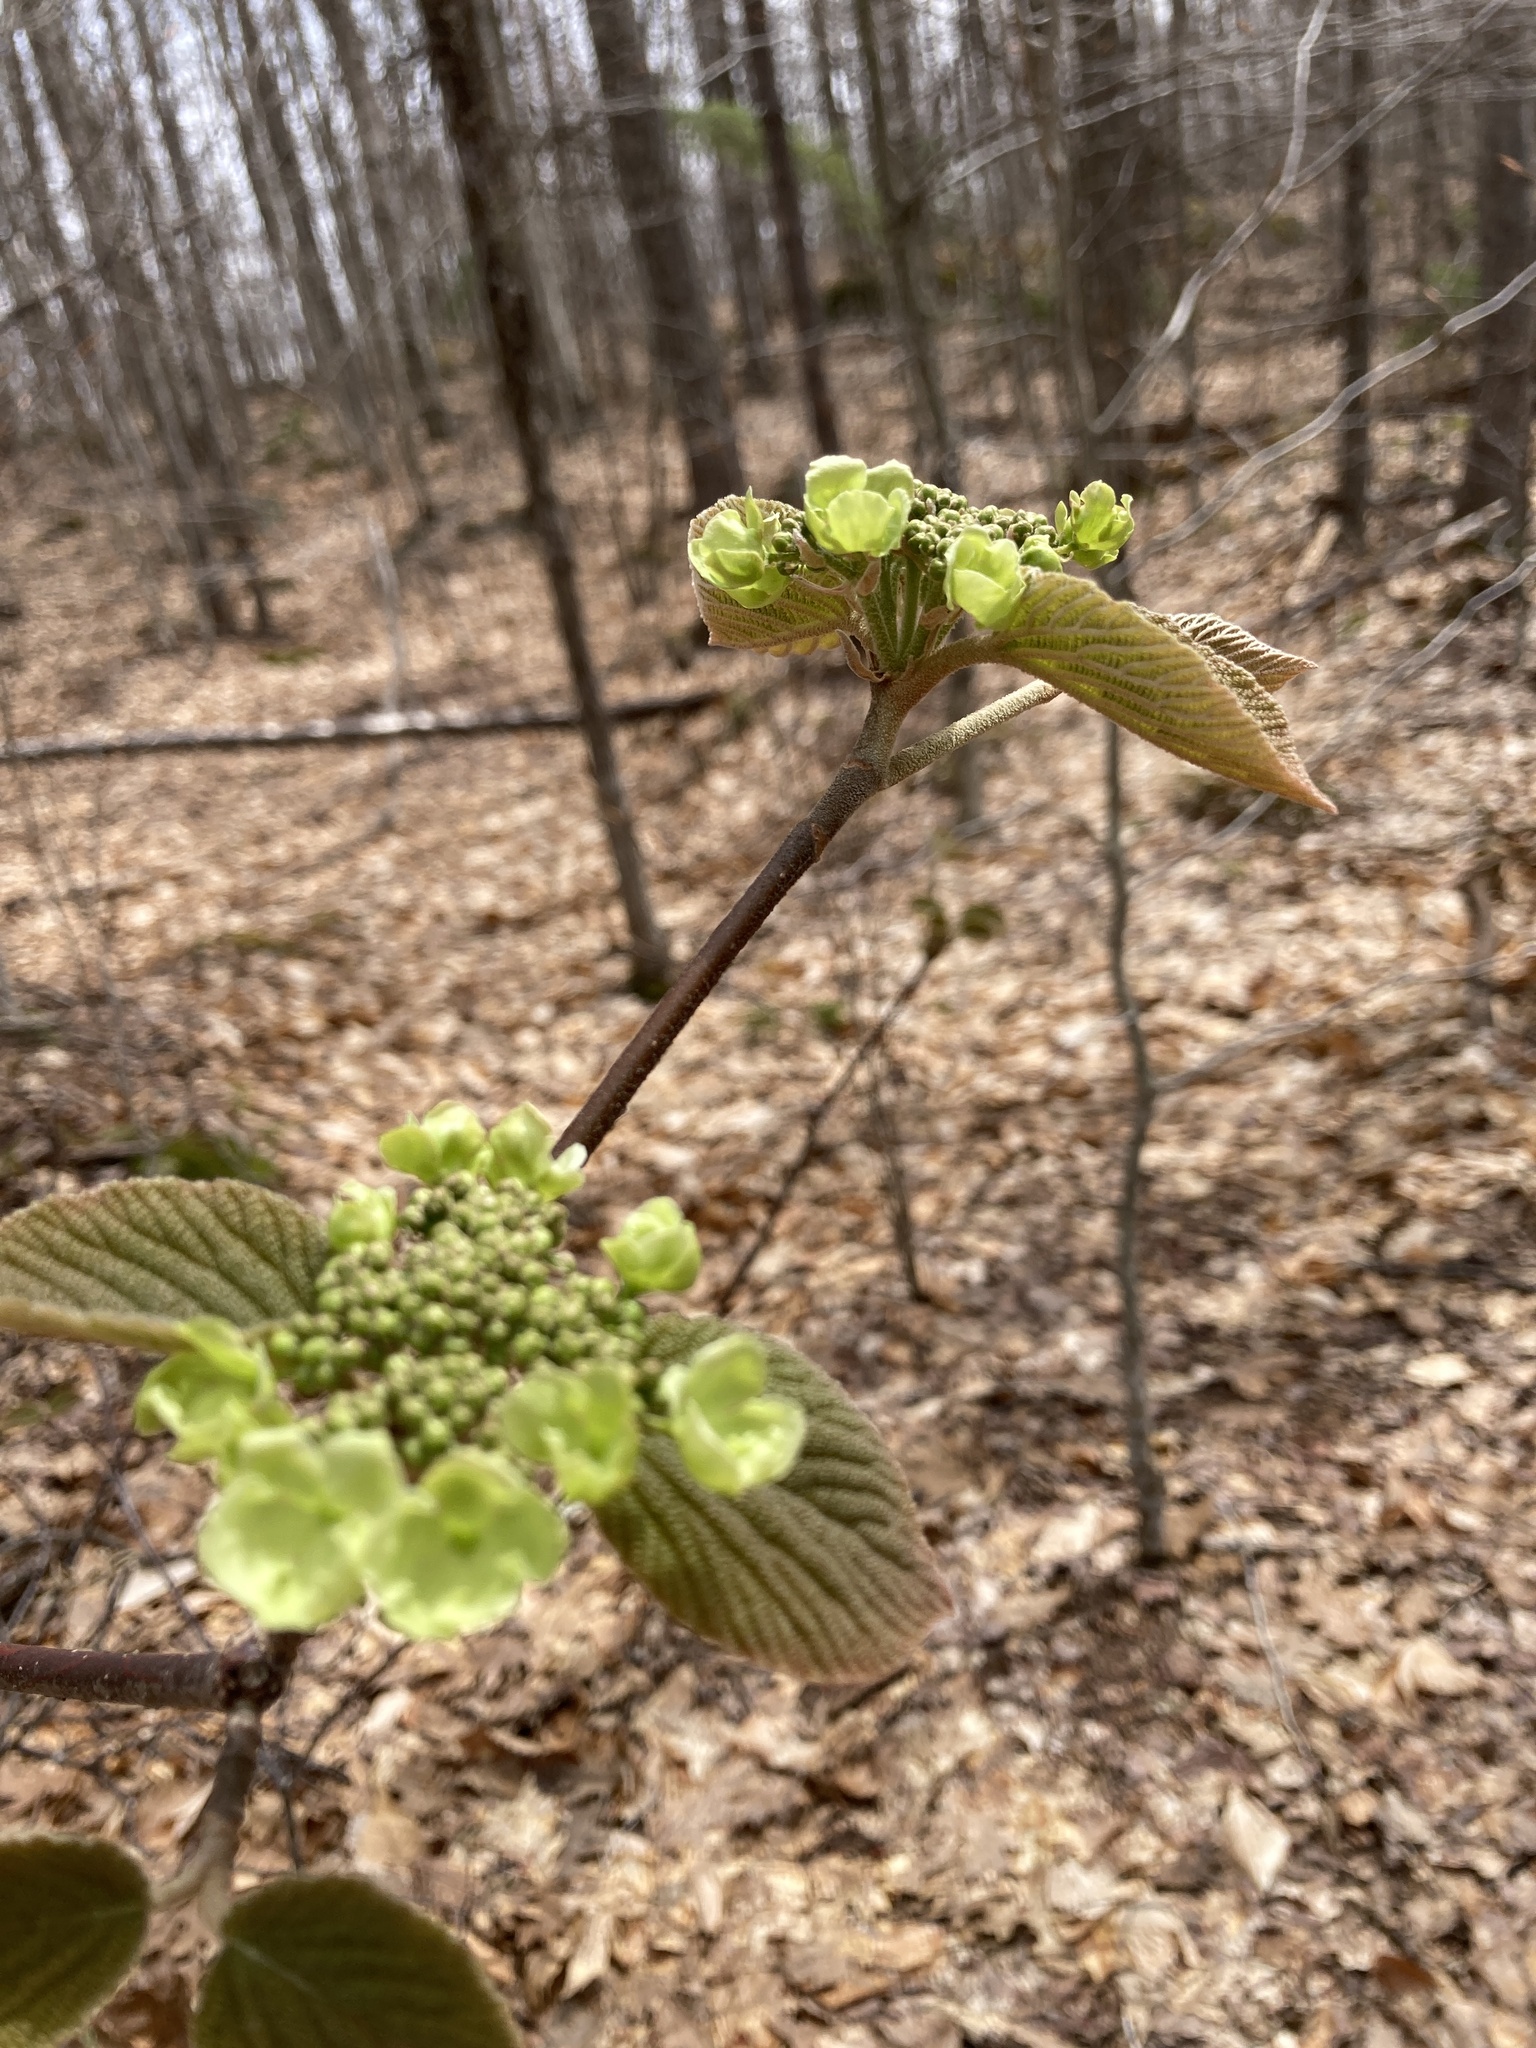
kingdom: Plantae
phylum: Tracheophyta
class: Magnoliopsida
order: Dipsacales
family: Viburnaceae
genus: Viburnum
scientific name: Viburnum lantanoides
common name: Hobblebush
